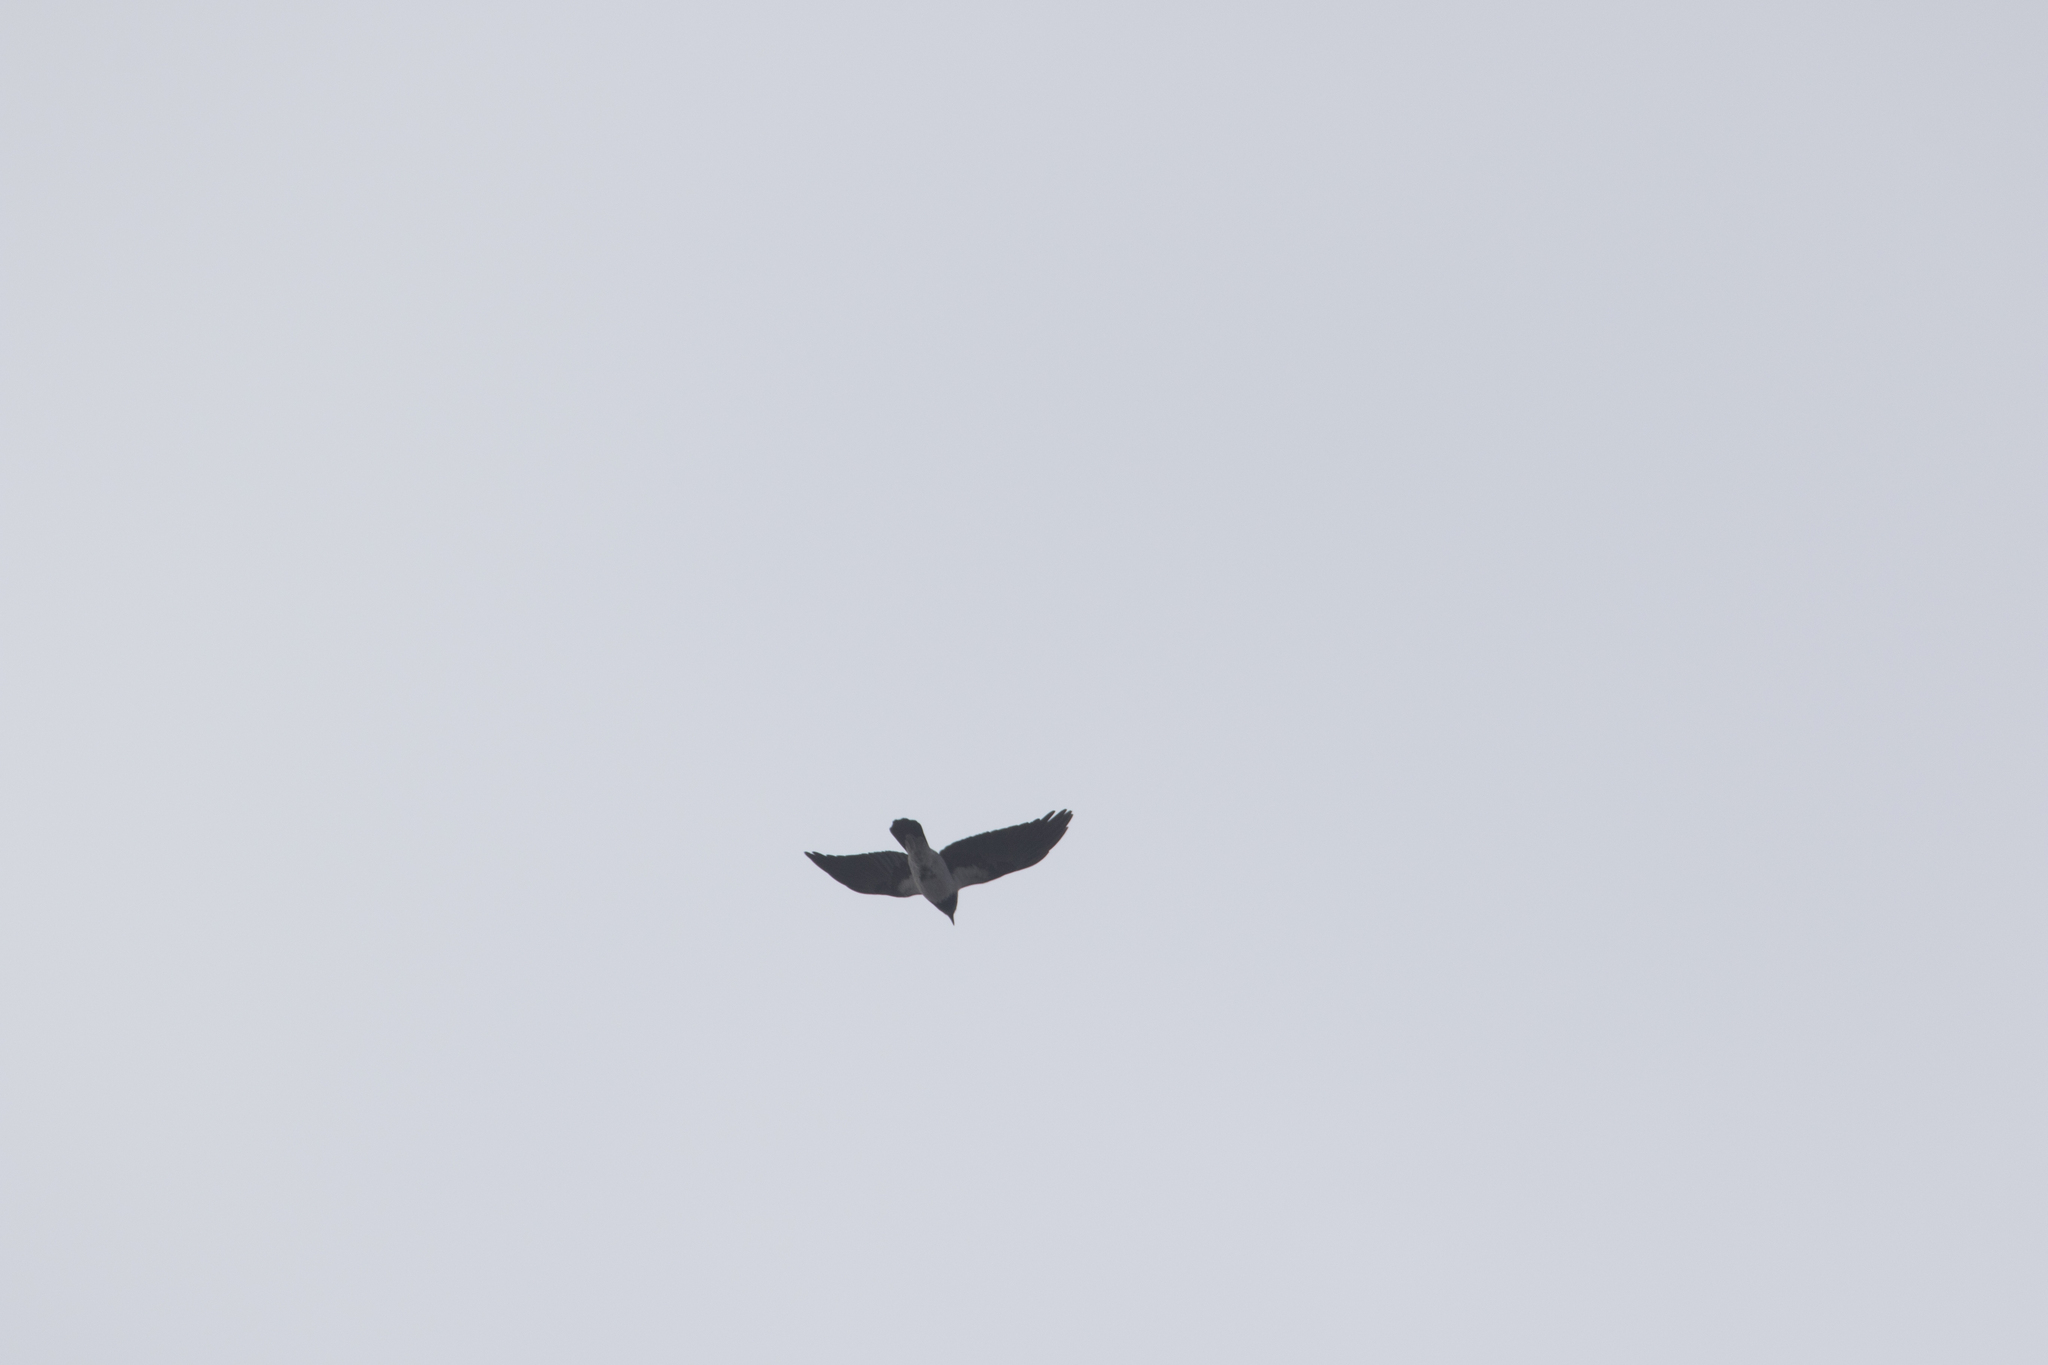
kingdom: Animalia
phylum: Chordata
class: Aves
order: Passeriformes
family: Corvidae
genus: Corvus
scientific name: Corvus cornix
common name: Hooded crow
